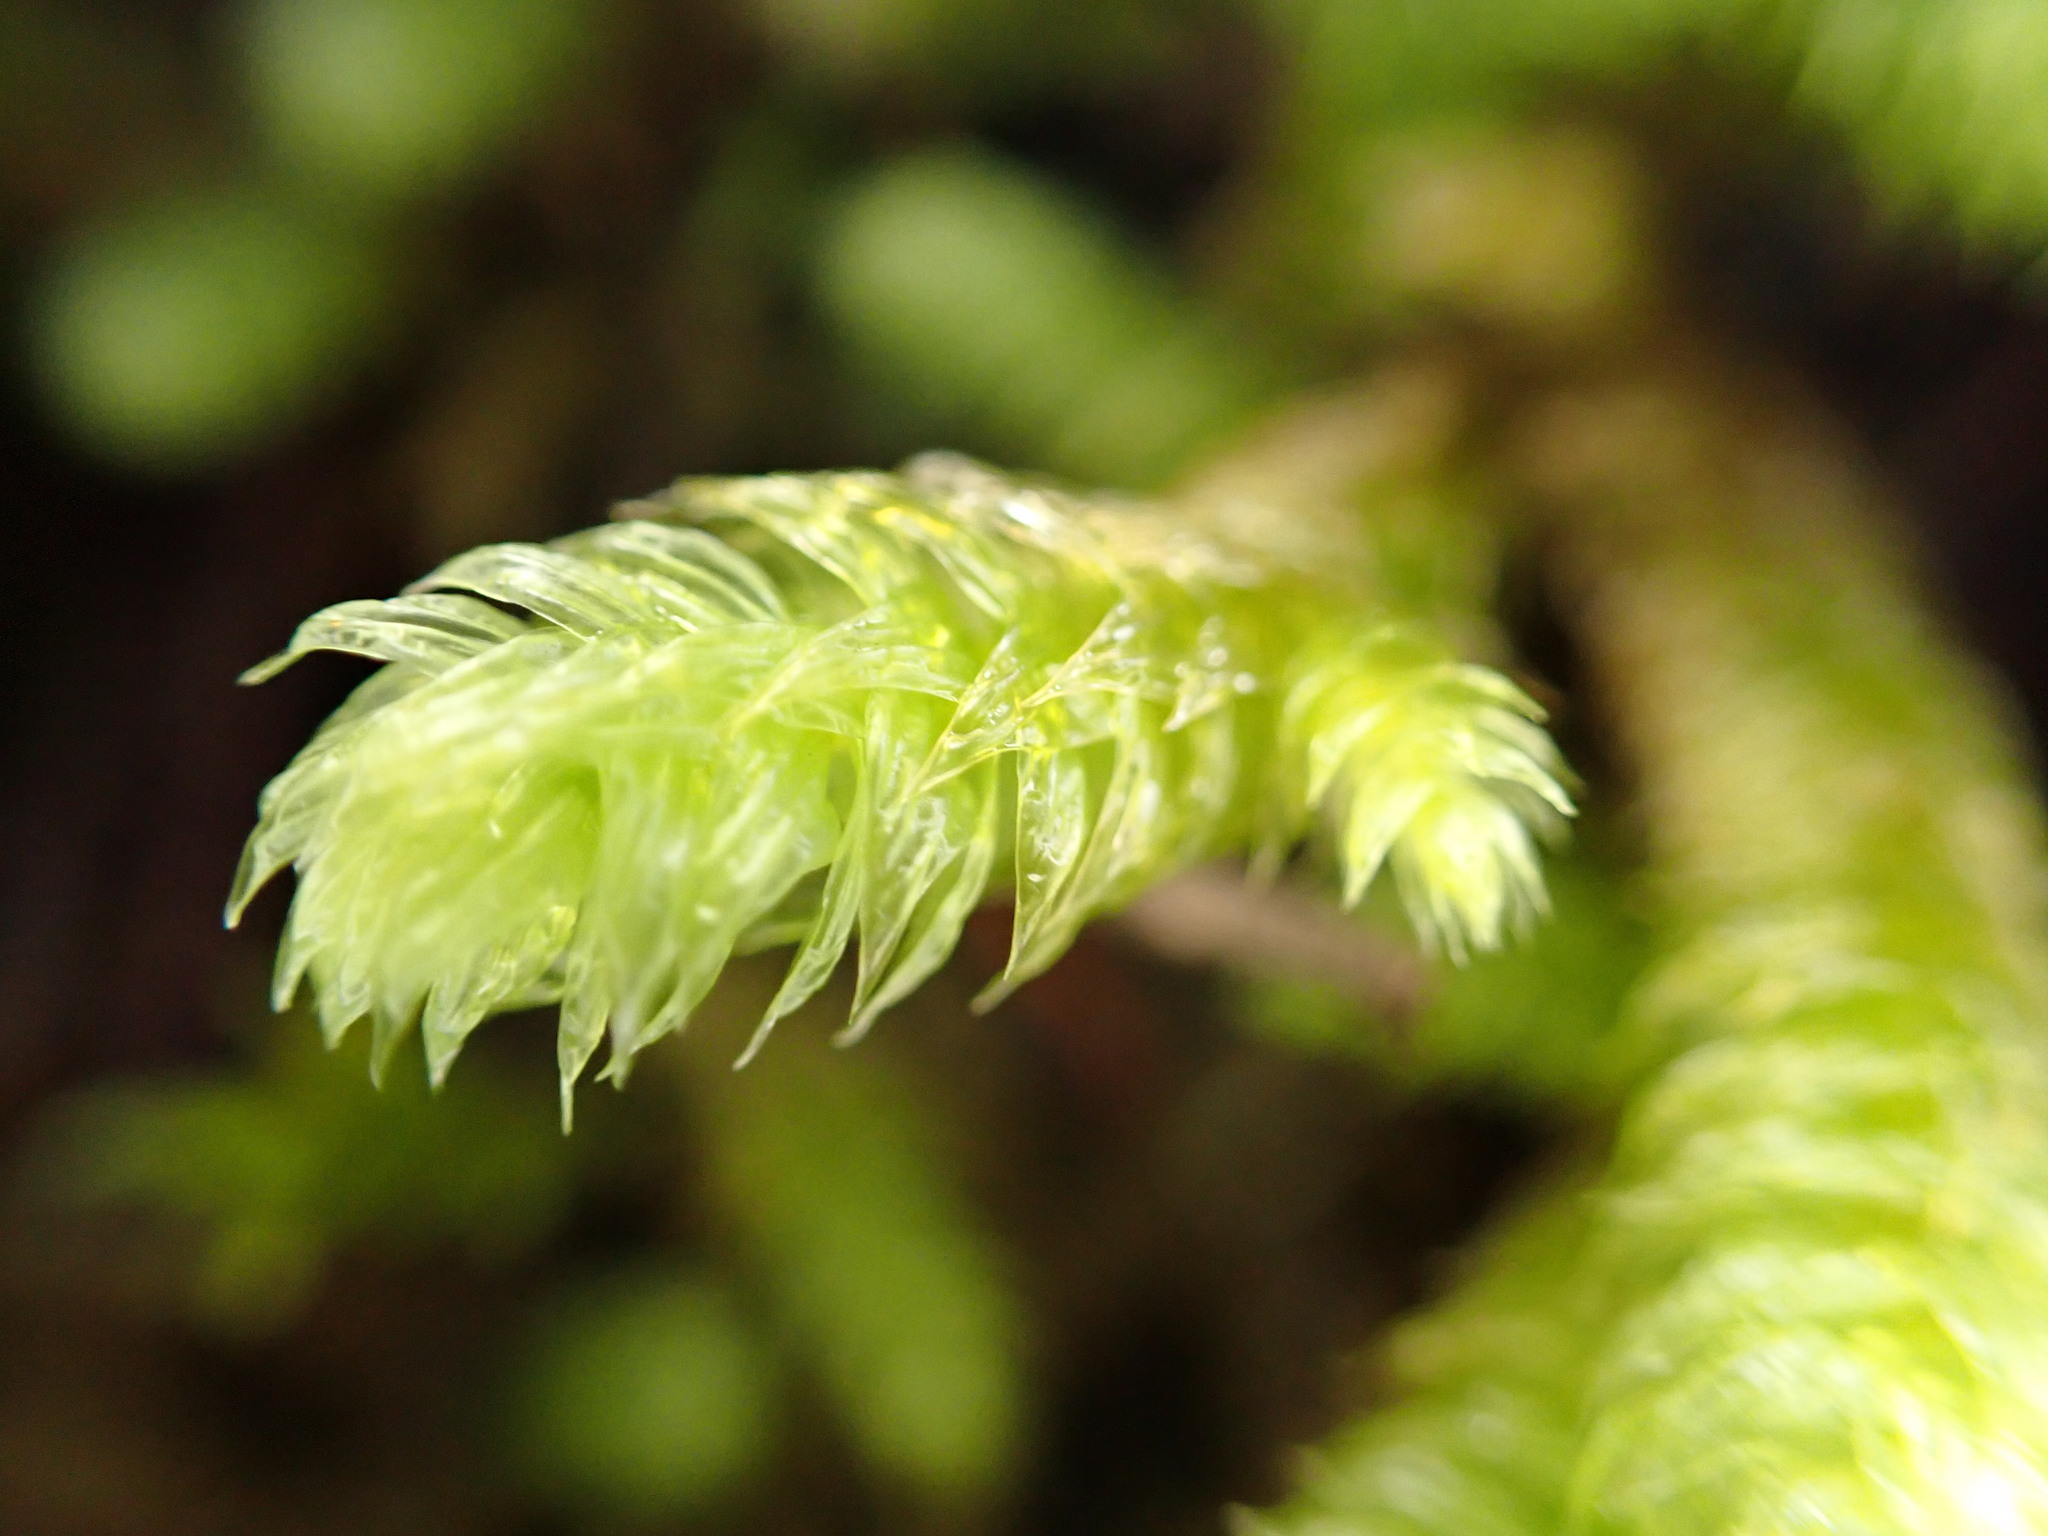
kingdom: Plantae
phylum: Bryophyta
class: Bryopsida
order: Hypnales
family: Hylocomiaceae
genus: Rhytidiopsis
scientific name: Rhytidiopsis robusta
